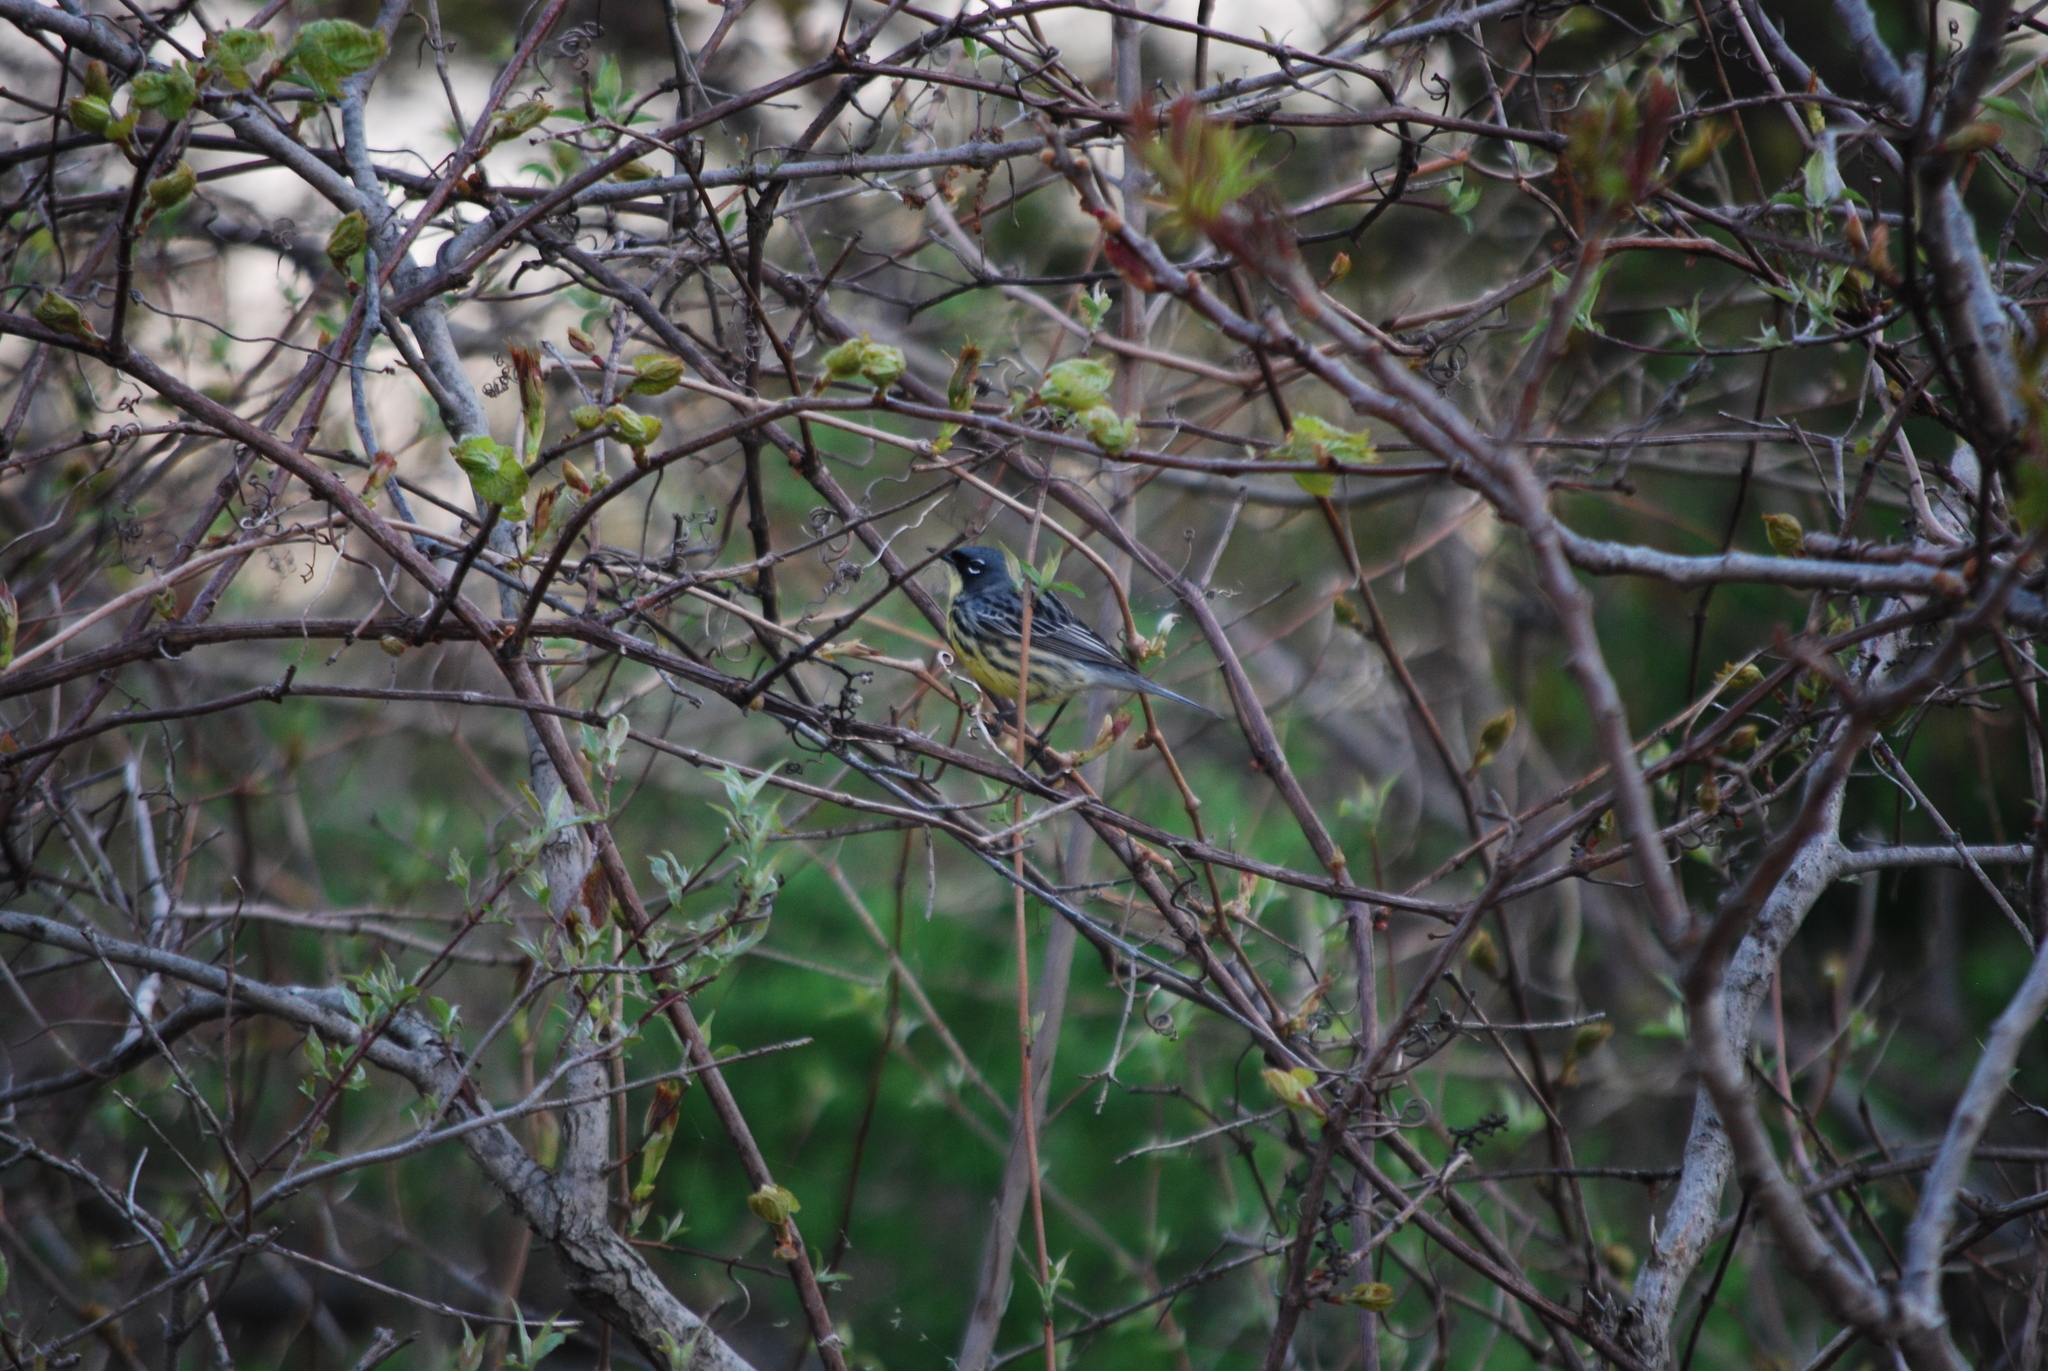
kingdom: Animalia
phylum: Chordata
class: Aves
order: Passeriformes
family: Parulidae
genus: Setophaga
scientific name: Setophaga kirtlandii
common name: Kirtland's warbler
